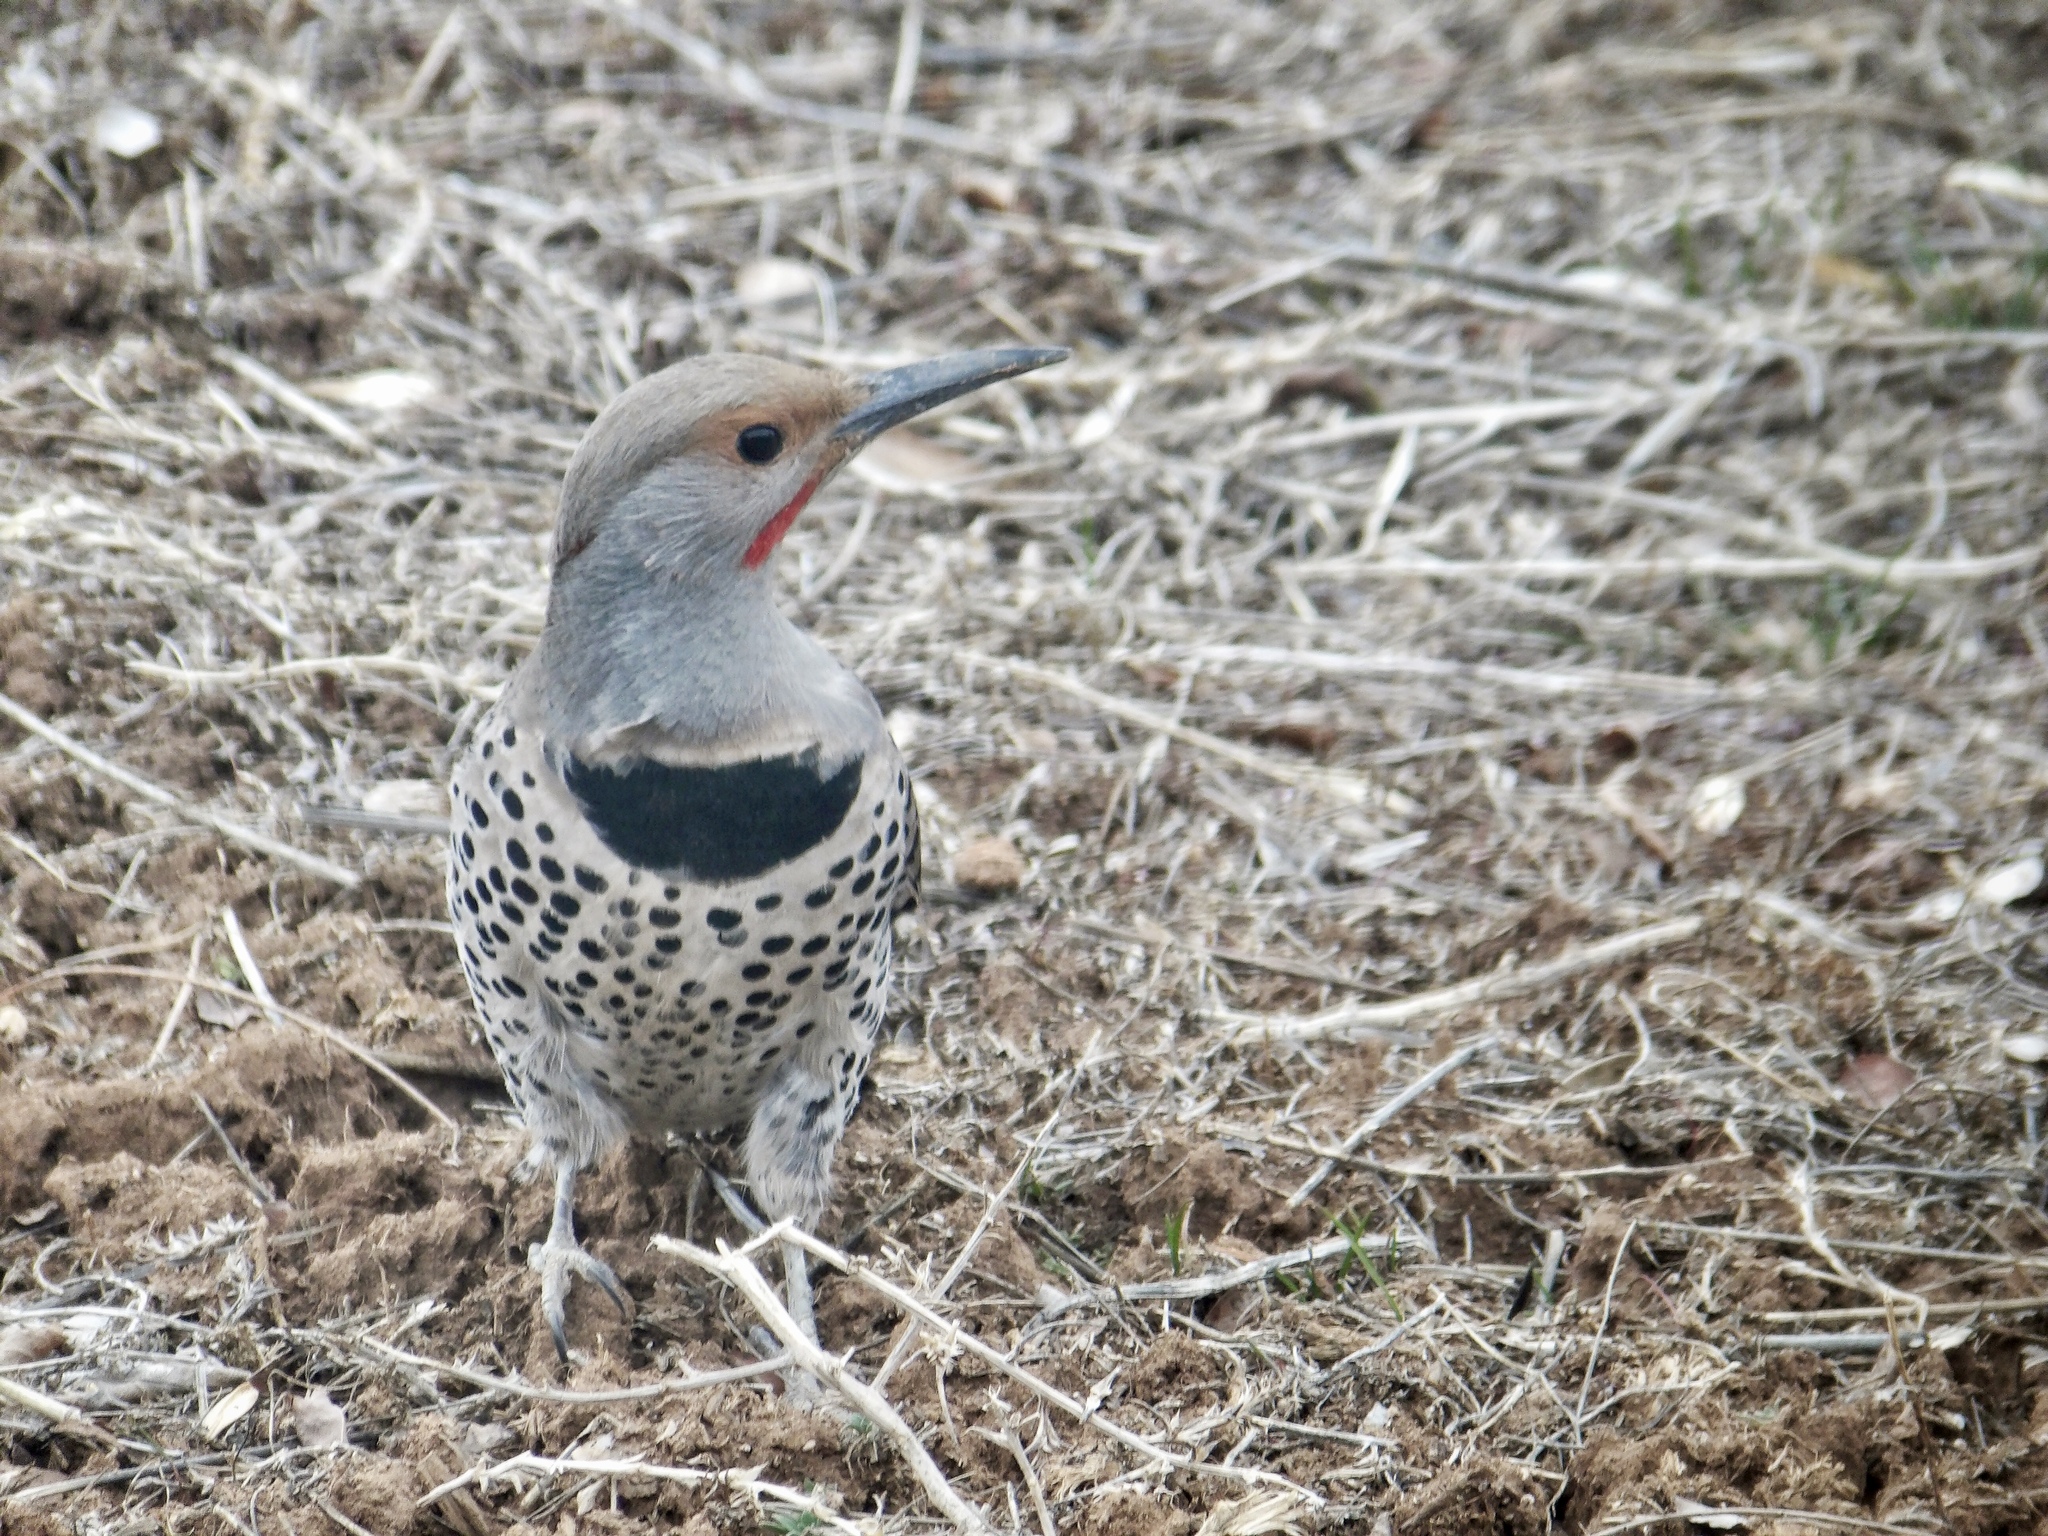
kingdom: Animalia
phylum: Chordata
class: Aves
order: Piciformes
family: Picidae
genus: Colaptes
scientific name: Colaptes auratus
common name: Northern flicker
